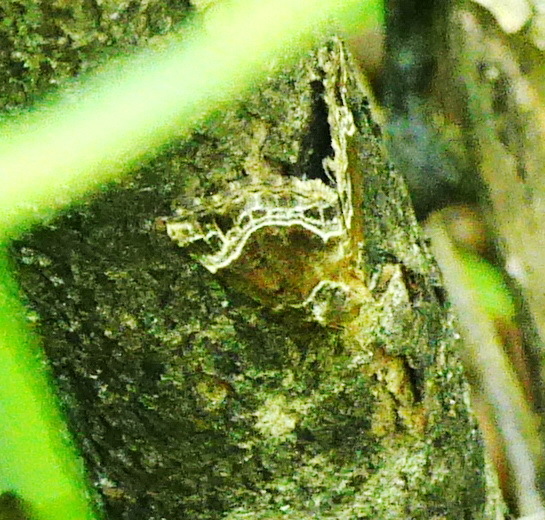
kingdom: Animalia
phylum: Arthropoda
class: Insecta
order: Lepidoptera
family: Erebidae
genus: Hypena
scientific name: Hypena abalienalis
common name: White-lined snout
